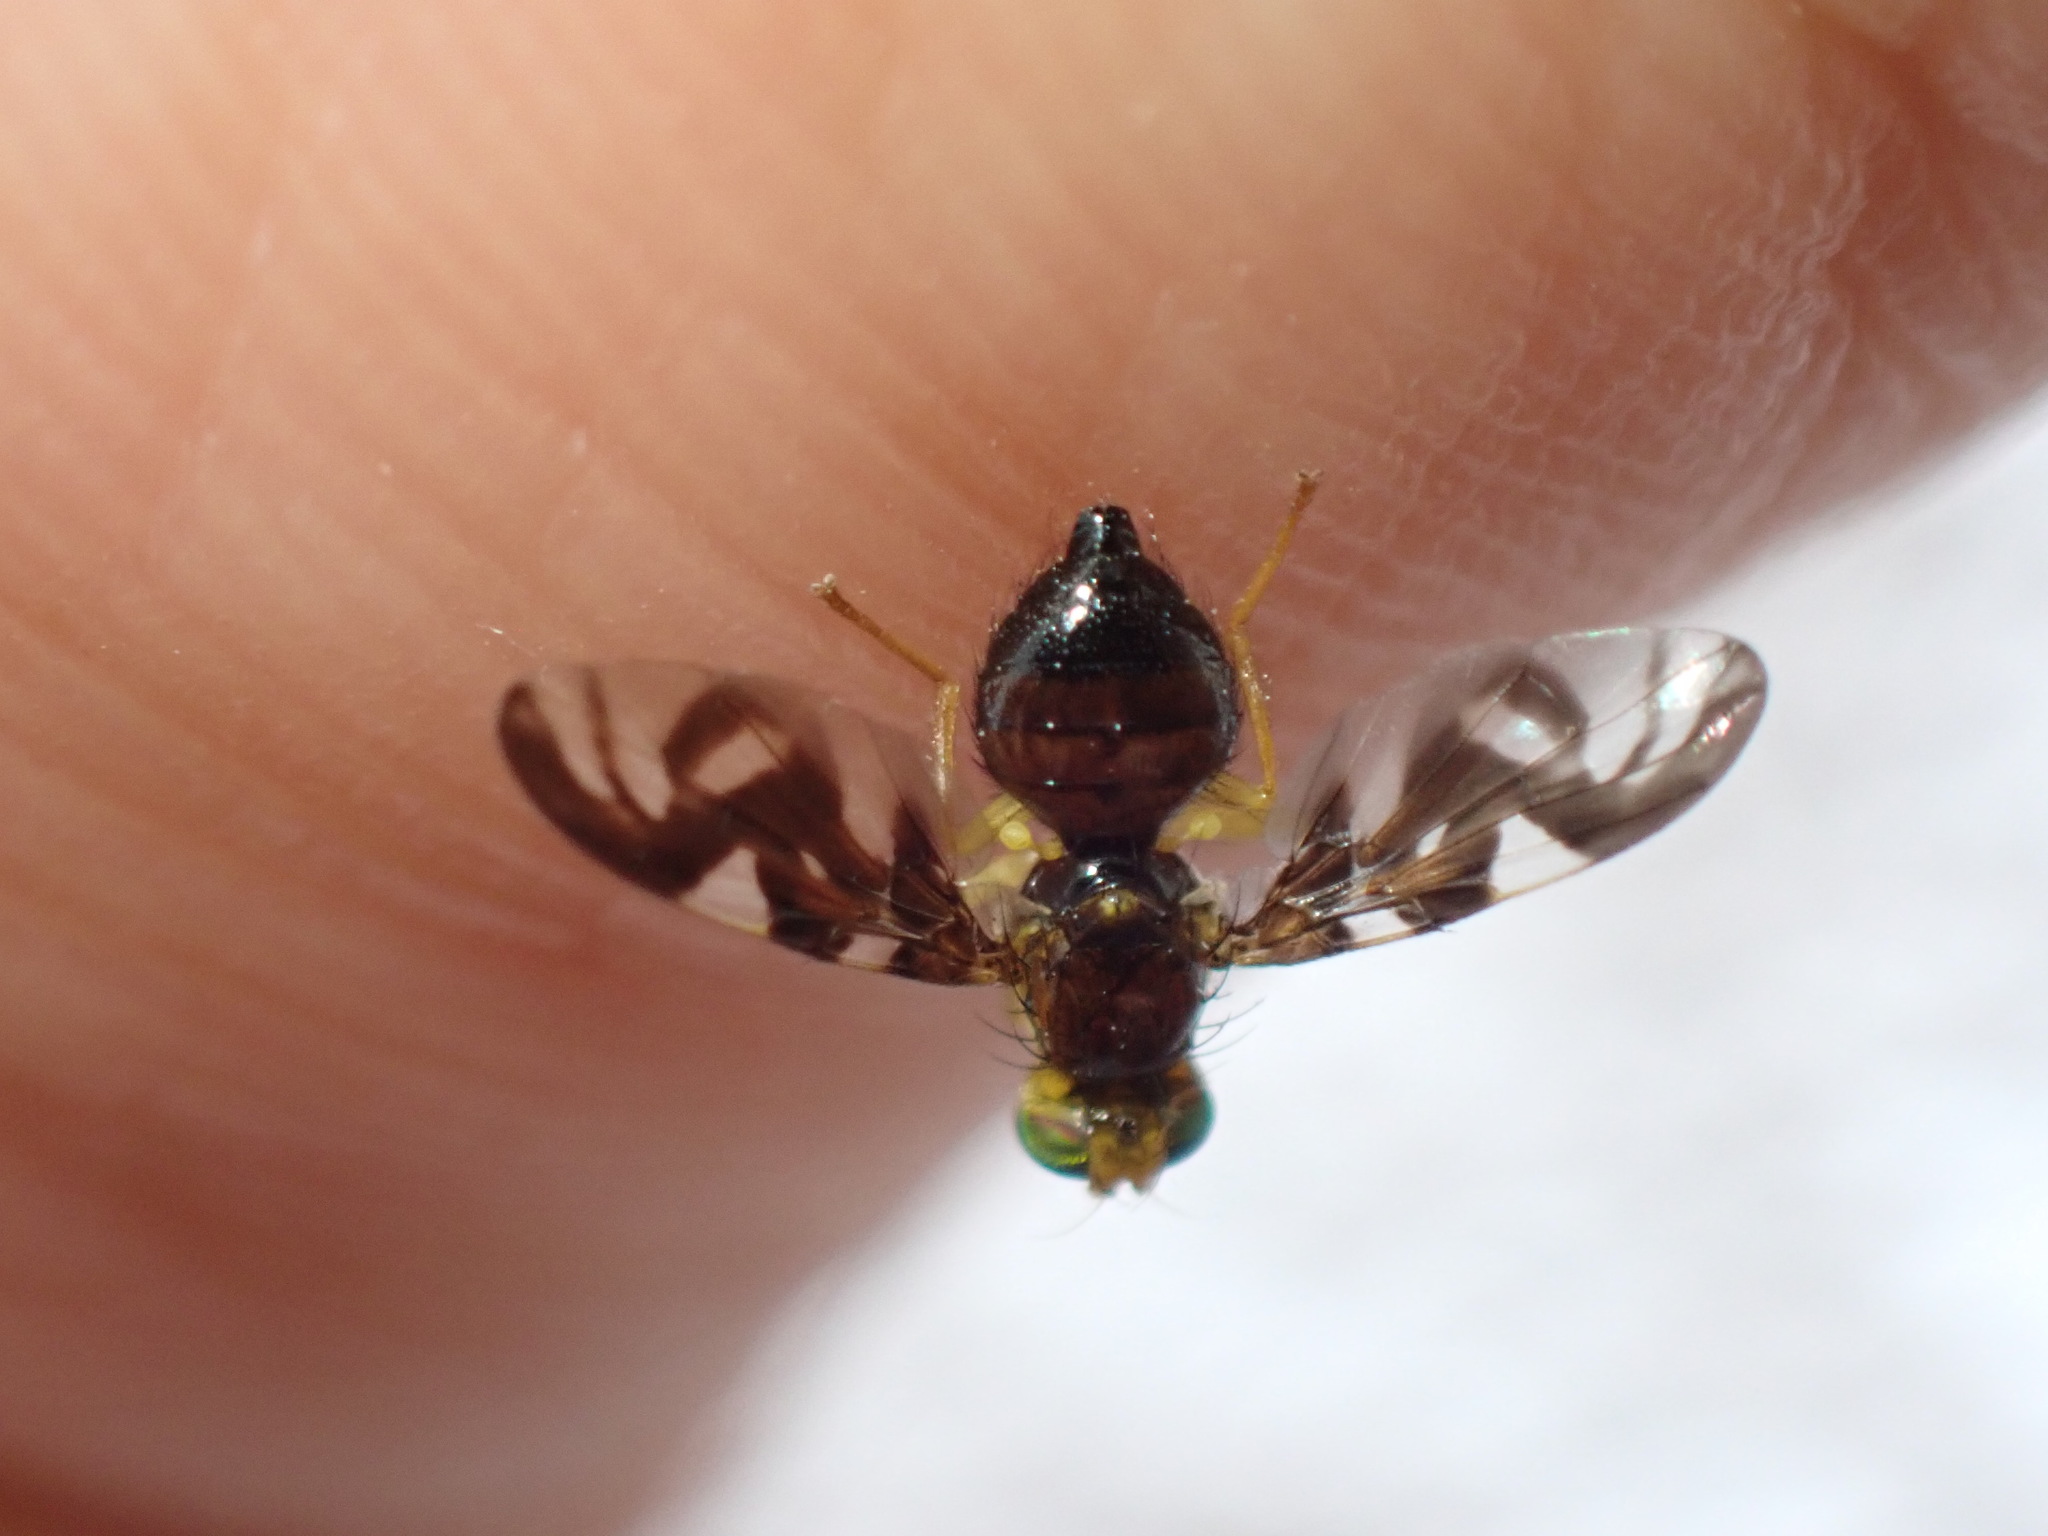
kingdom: Animalia
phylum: Arthropoda
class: Insecta
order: Diptera
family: Tephritidae
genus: Euleia
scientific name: Euleia heraclei
